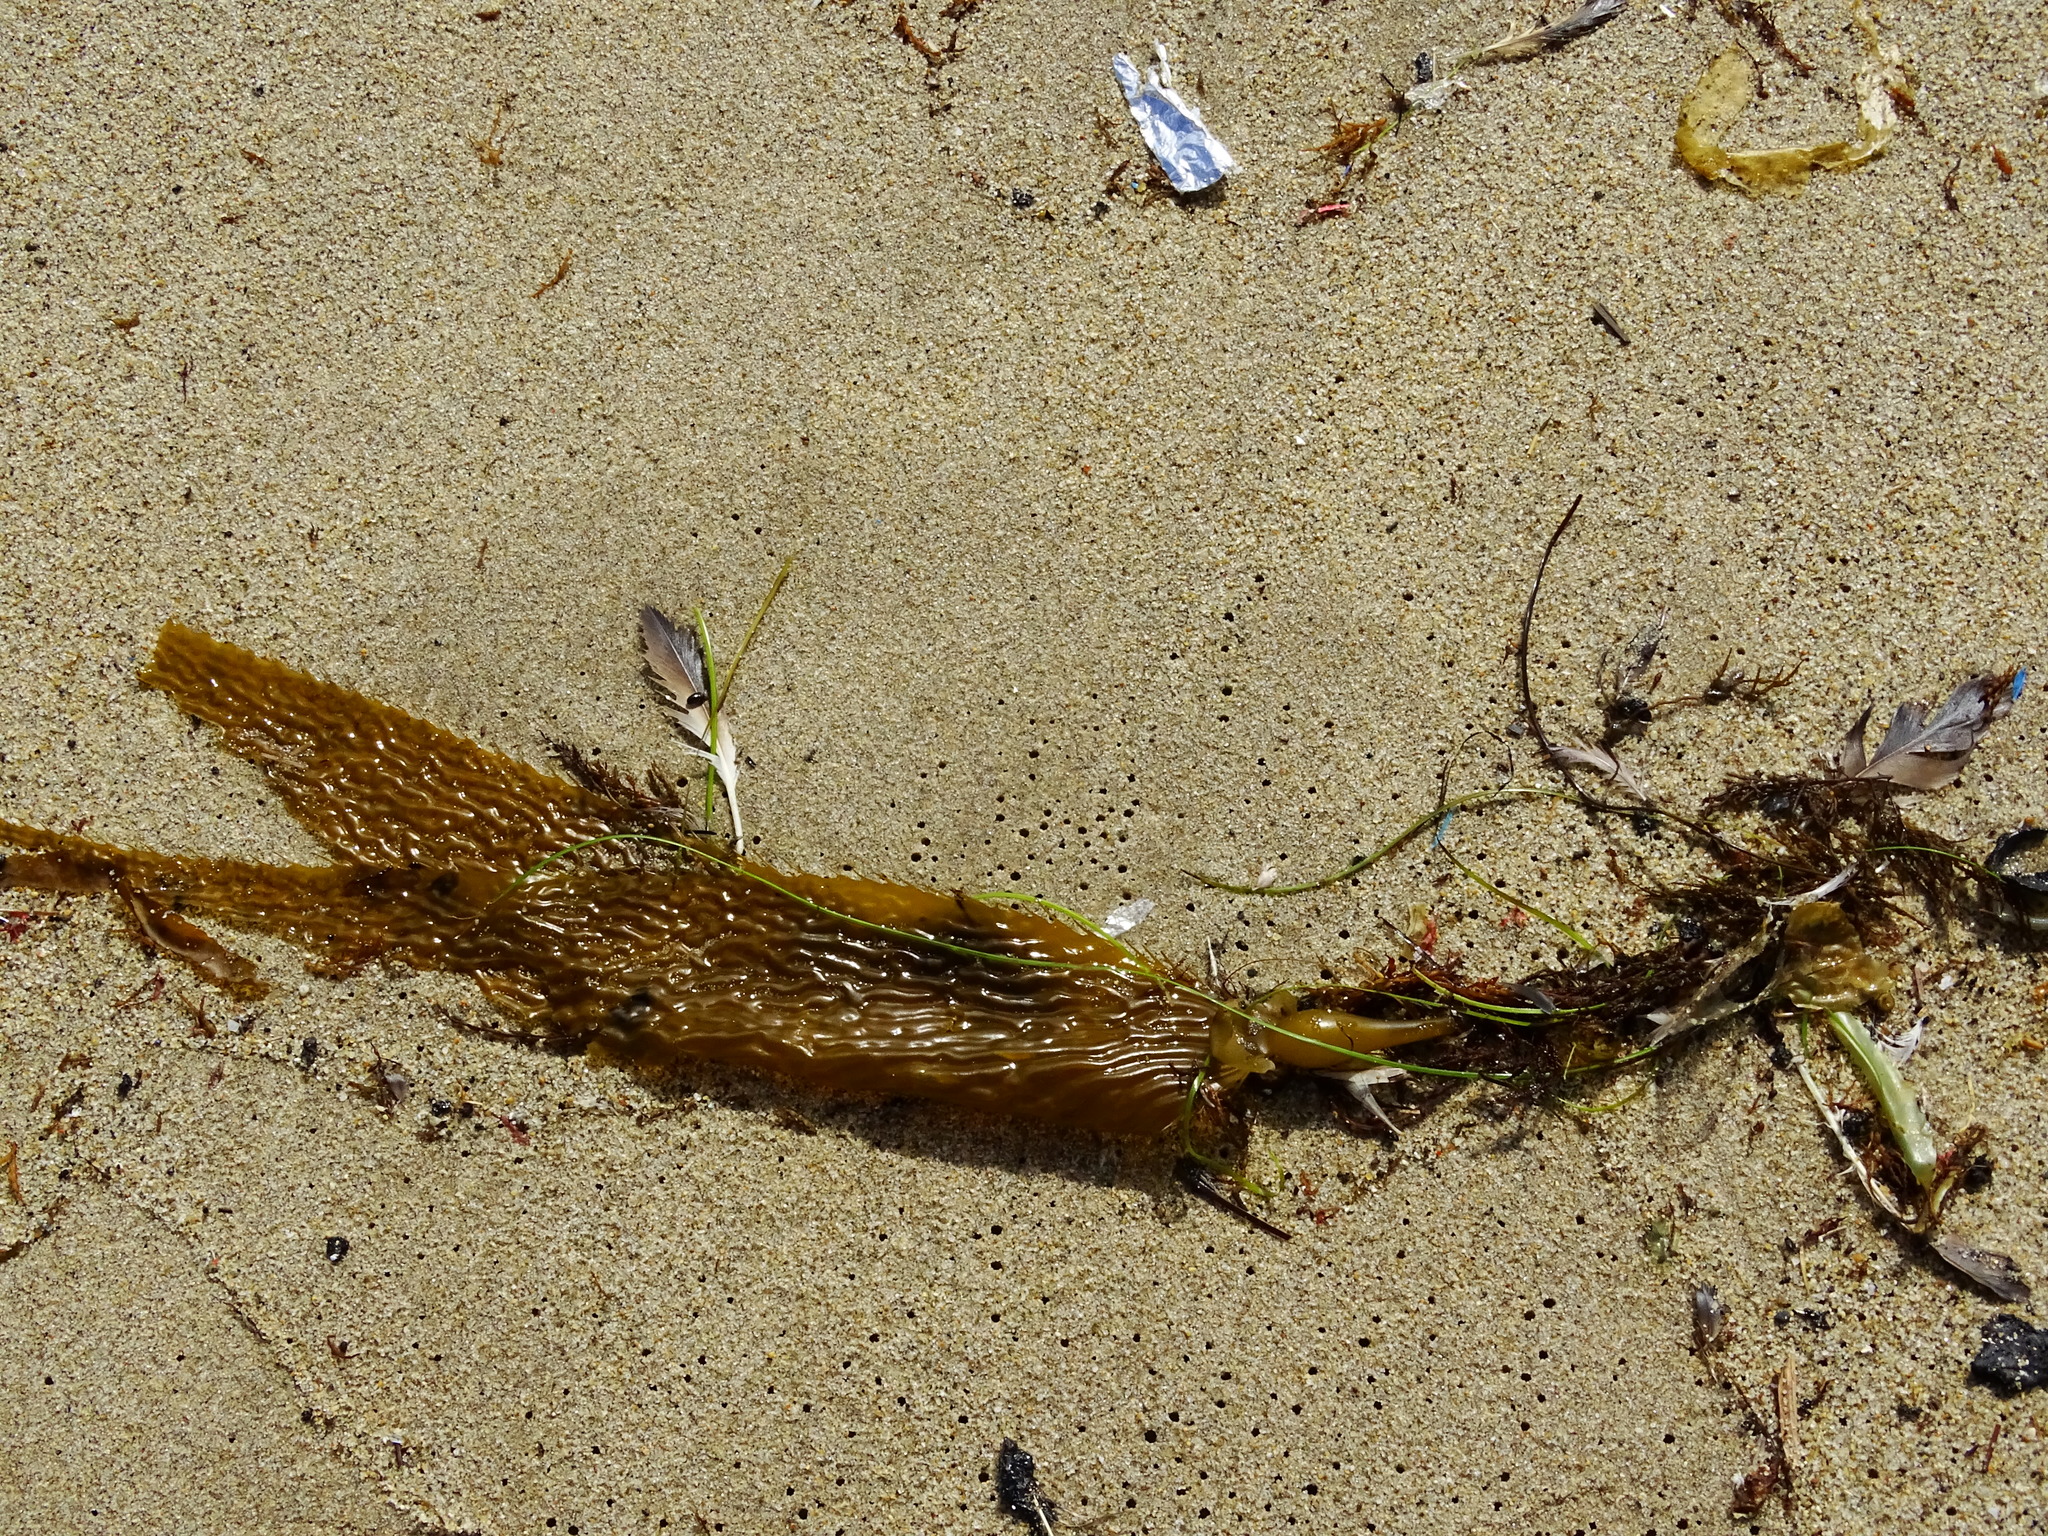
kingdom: Chromista
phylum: Ochrophyta
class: Phaeophyceae
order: Laminariales
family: Laminariaceae
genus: Macrocystis
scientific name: Macrocystis pyrifera
